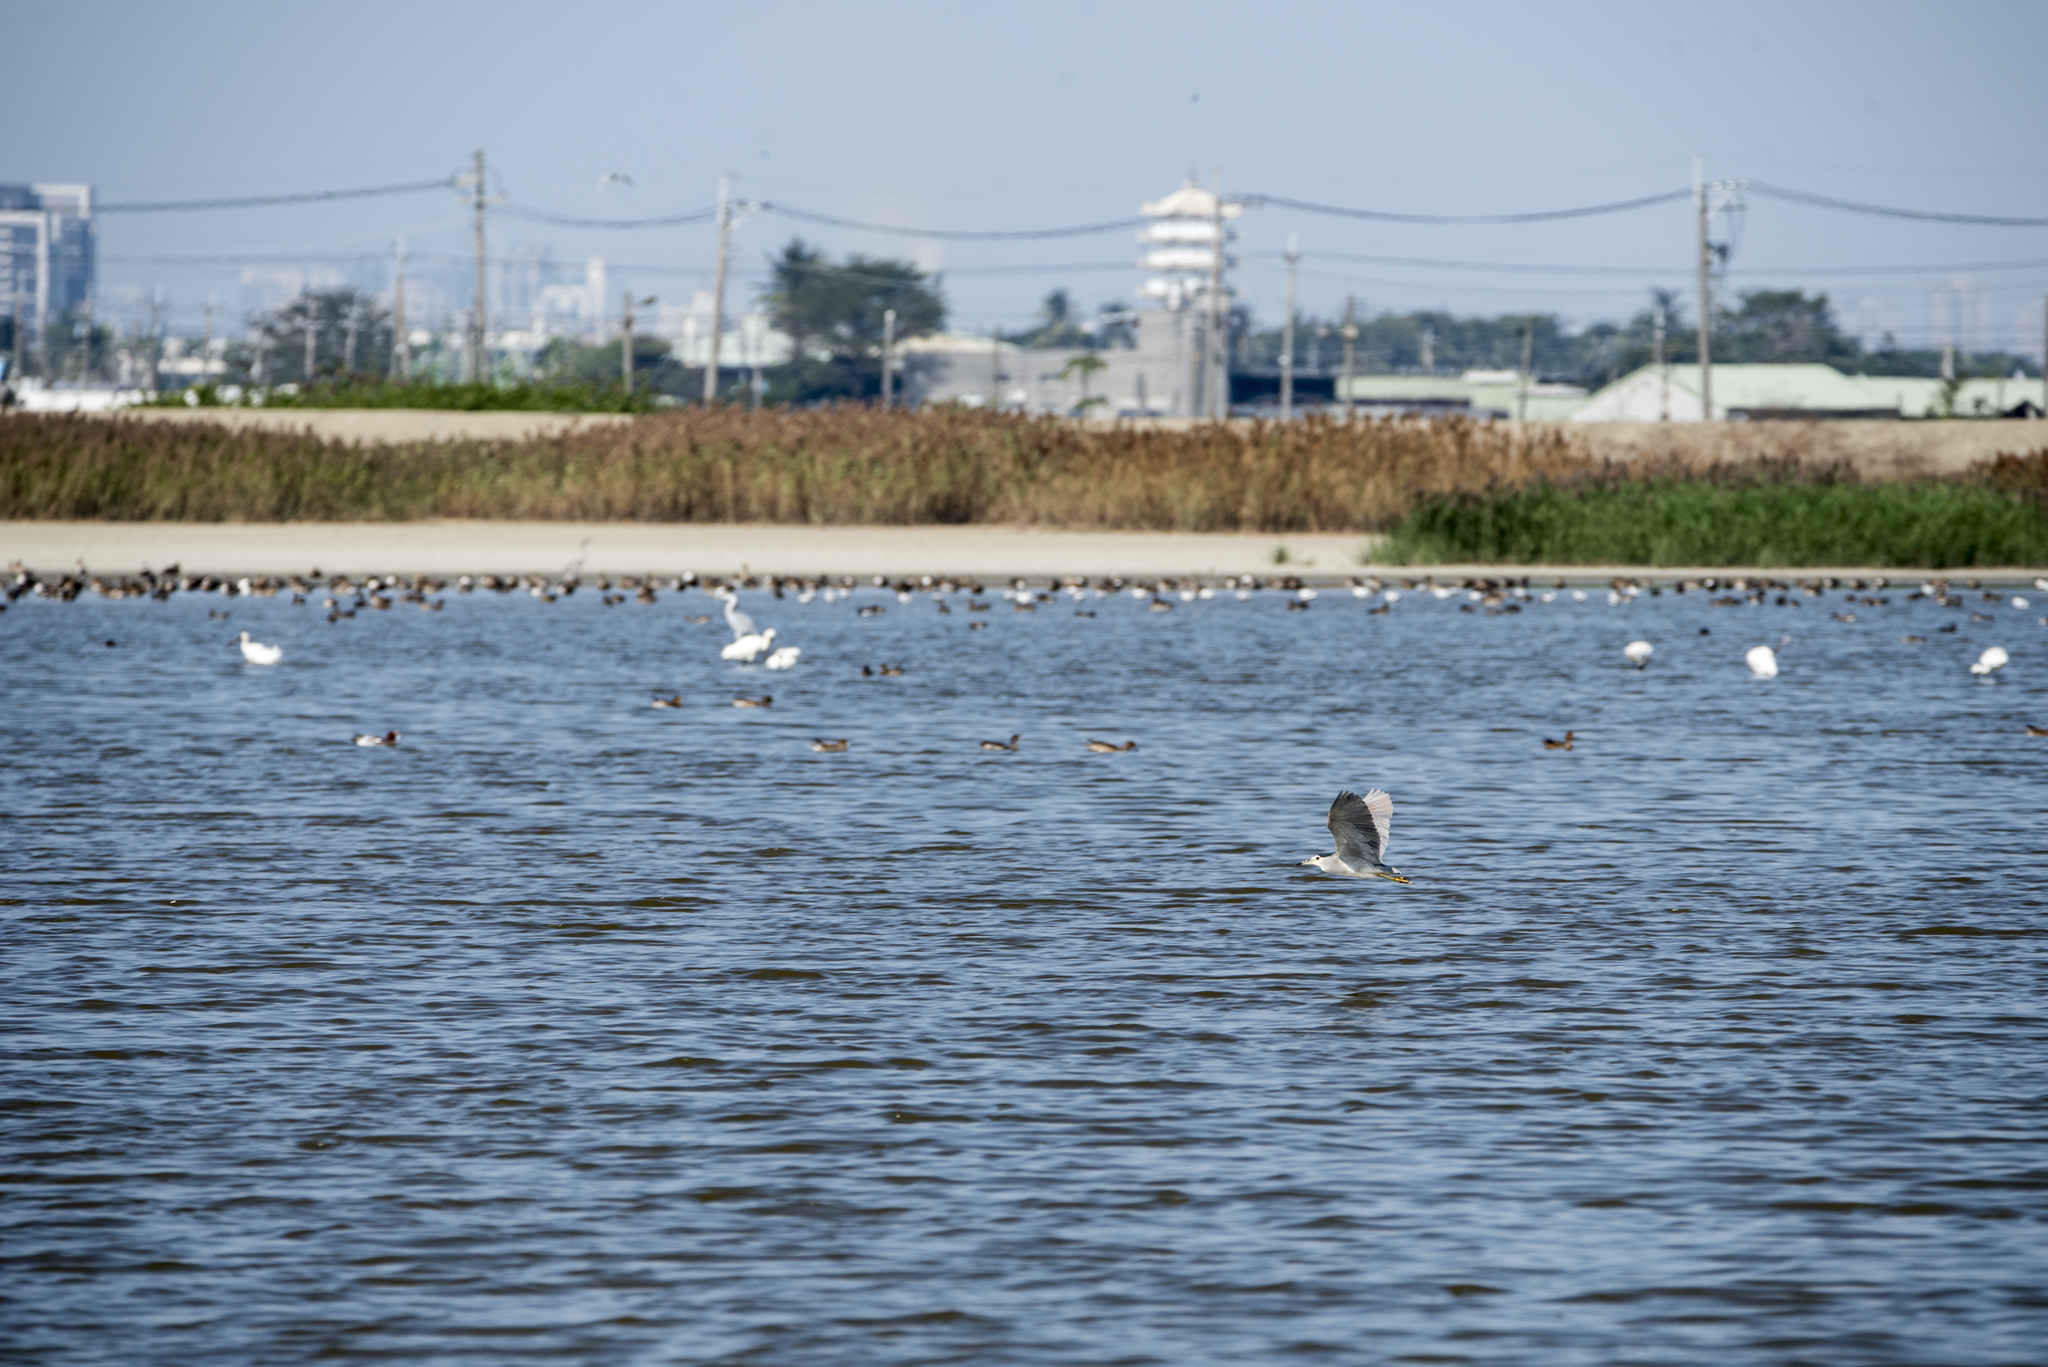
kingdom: Animalia
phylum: Chordata
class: Aves
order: Pelecaniformes
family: Ardeidae
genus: Nycticorax
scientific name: Nycticorax nycticorax
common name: Black-crowned night heron
